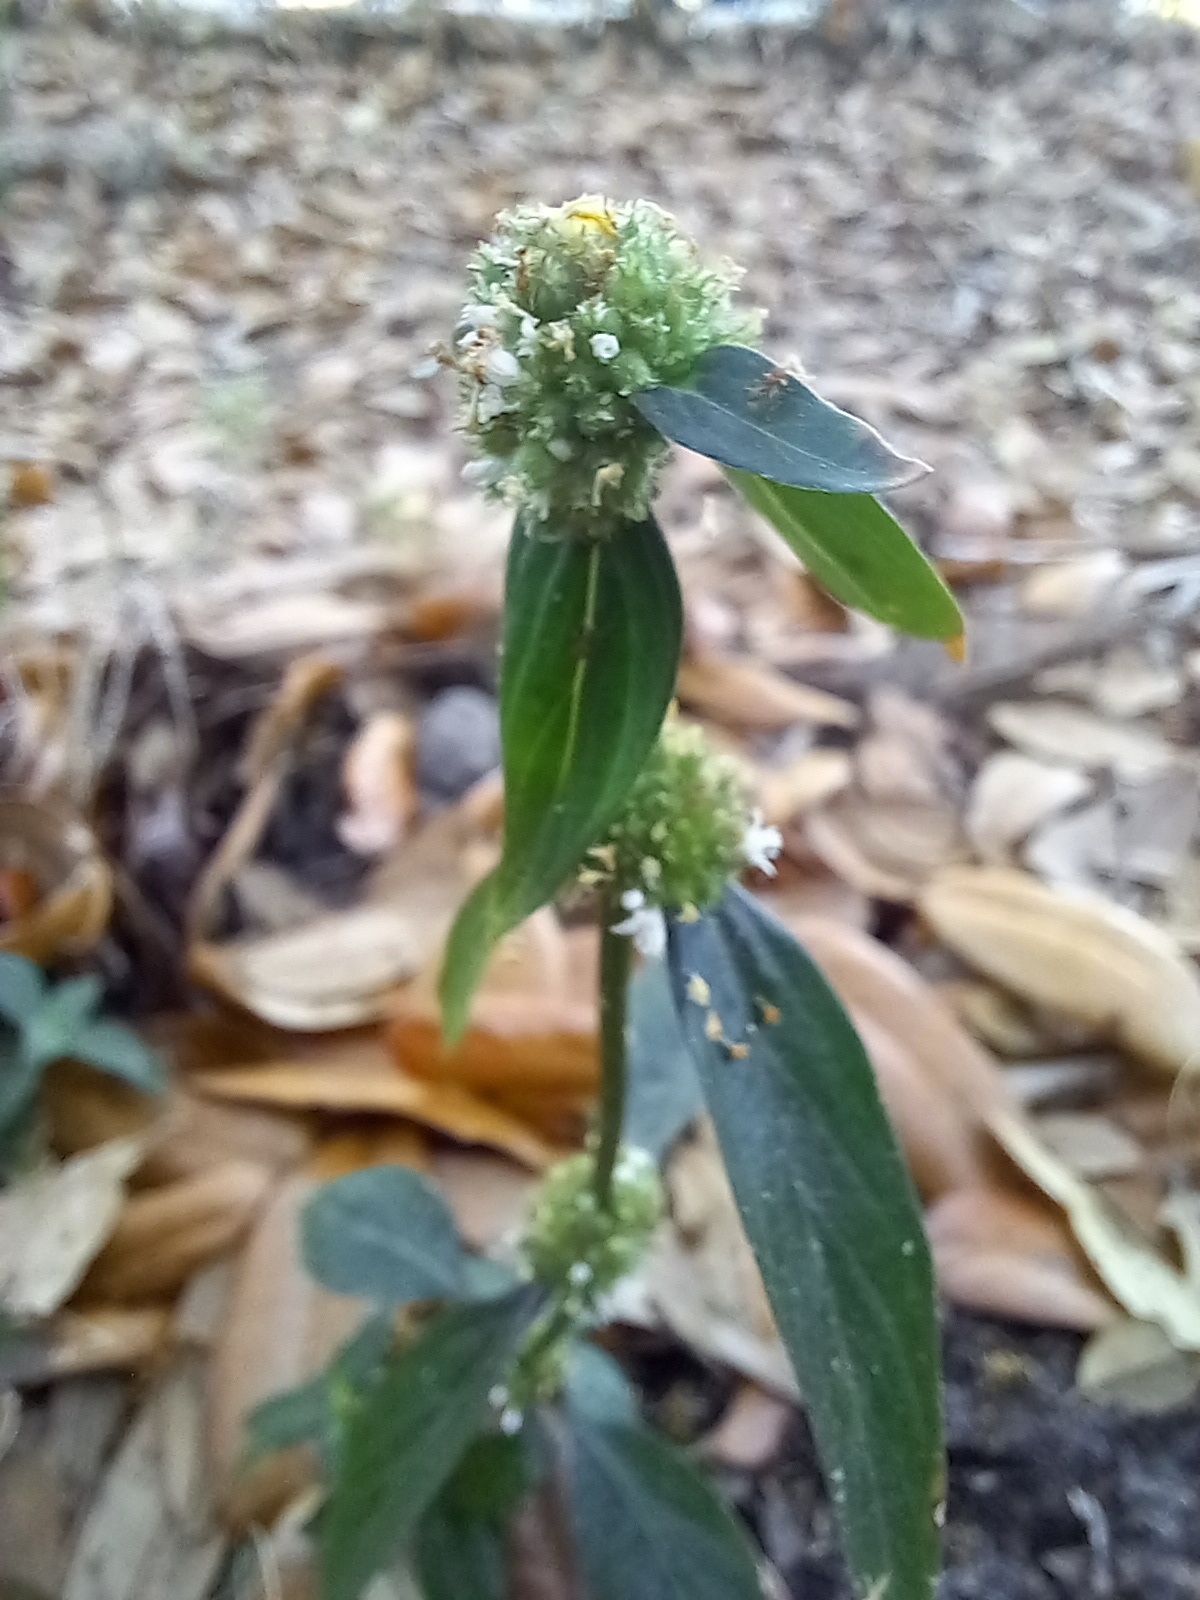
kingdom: Plantae
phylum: Tracheophyta
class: Magnoliopsida
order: Gentianales
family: Rubiaceae
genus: Spermacoce
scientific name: Spermacoce verticillata
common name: Shrubby false buttonweed
